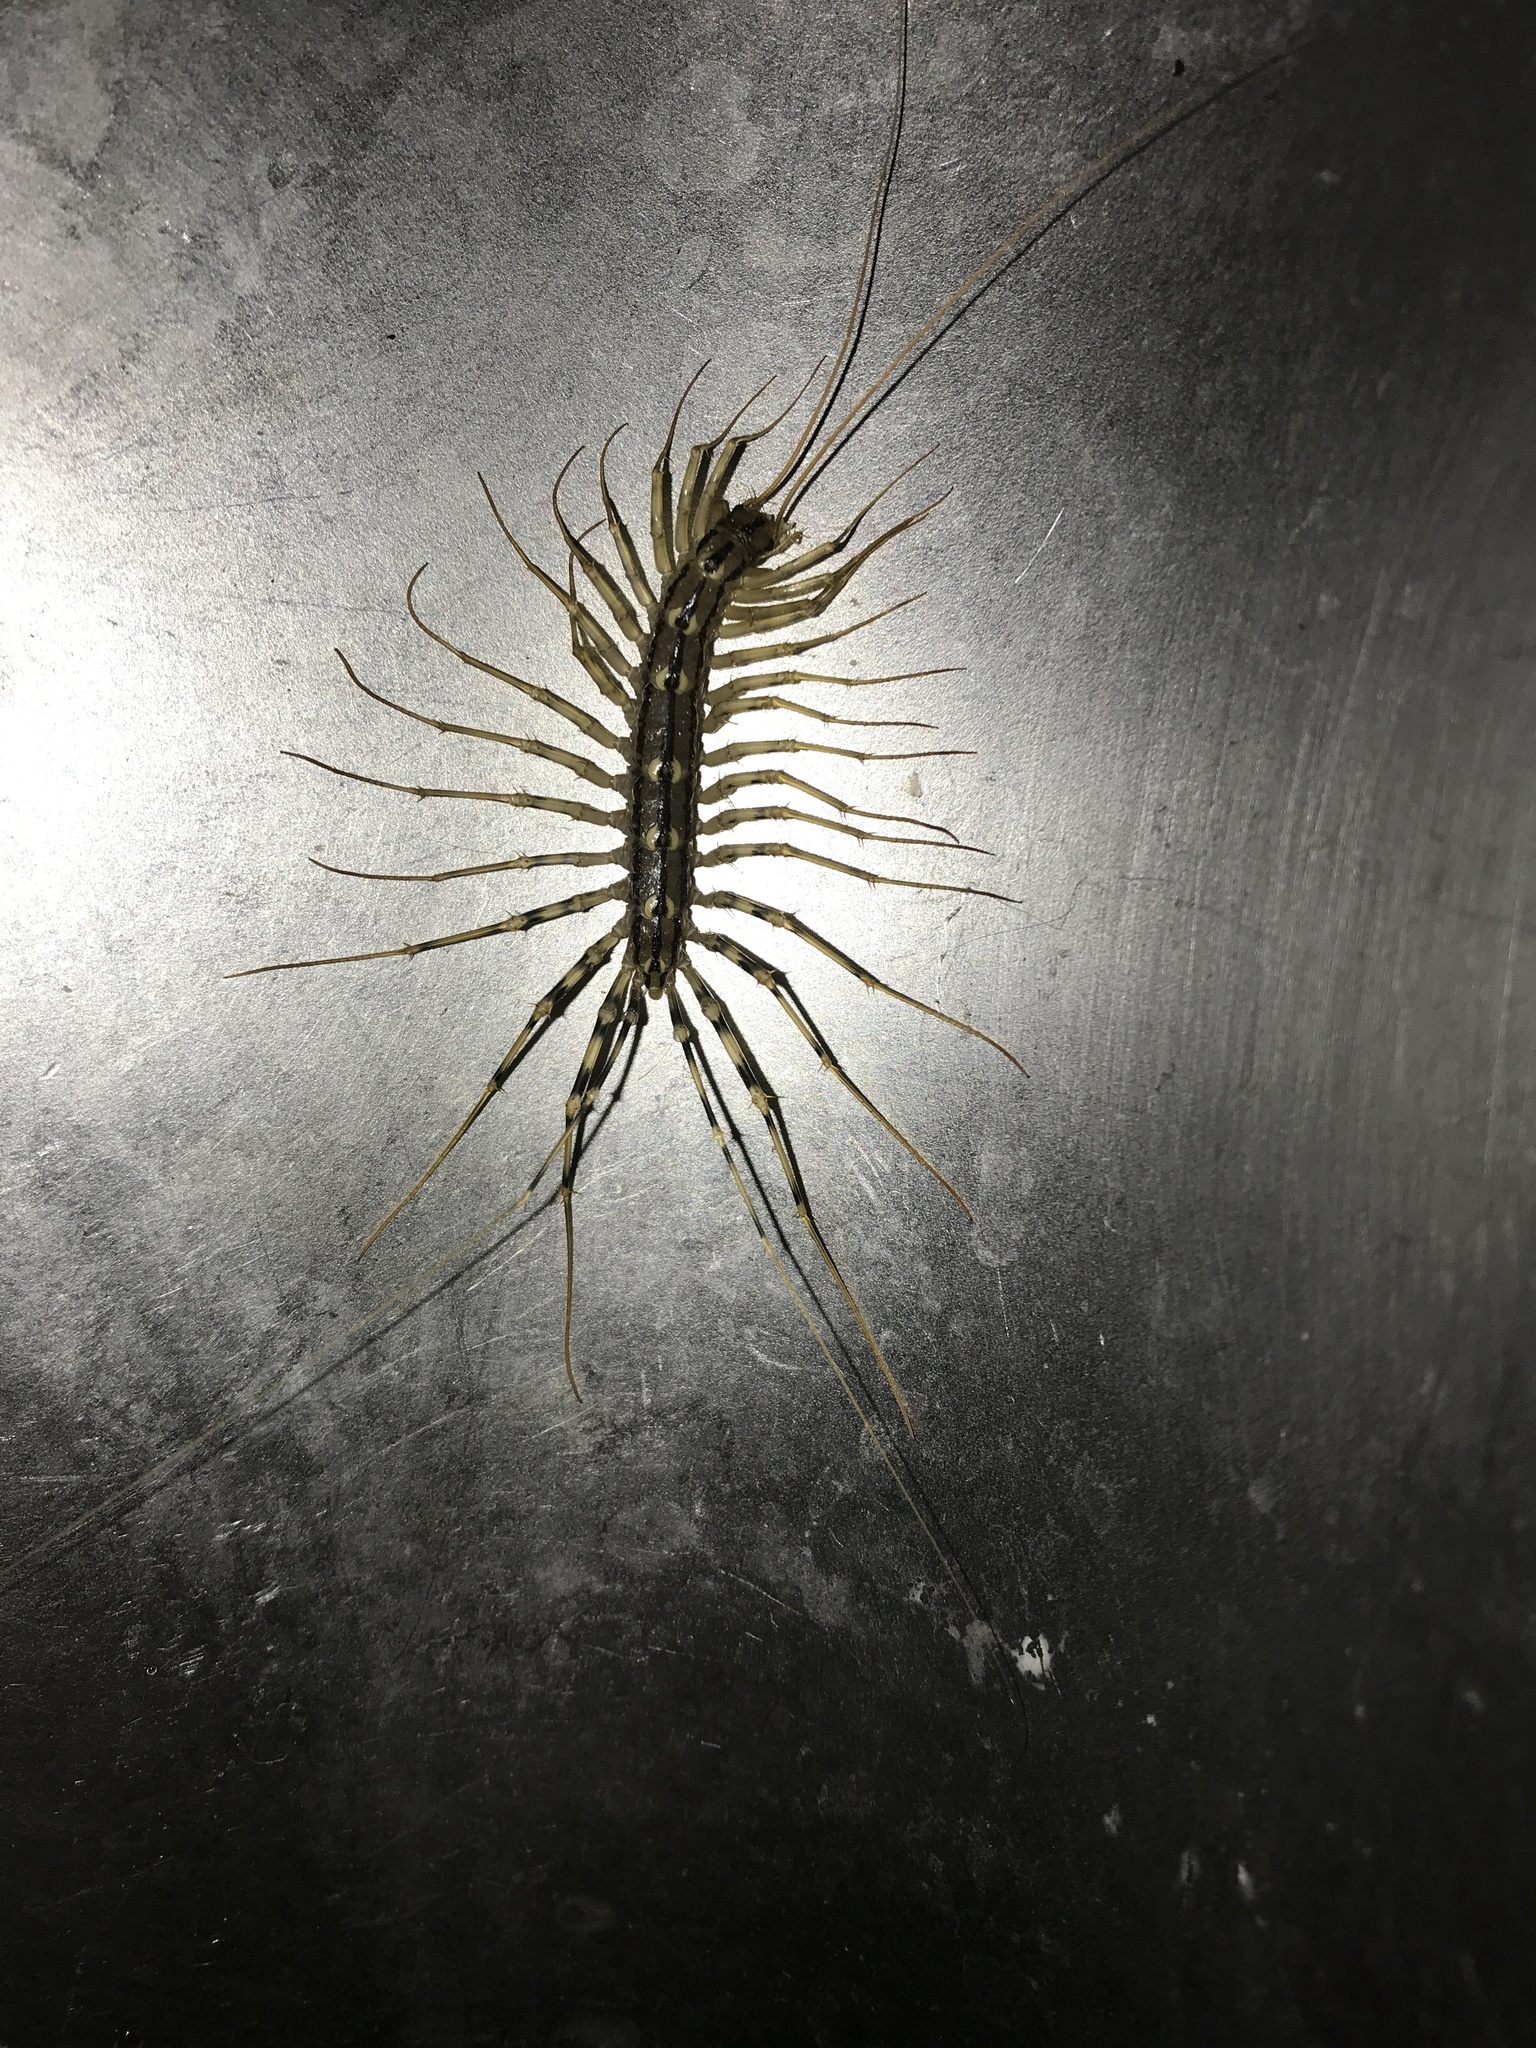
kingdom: Animalia
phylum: Arthropoda
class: Chilopoda
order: Scutigeromorpha
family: Scutigeridae
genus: Scutigera
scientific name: Scutigera coleoptrata
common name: House centipede
